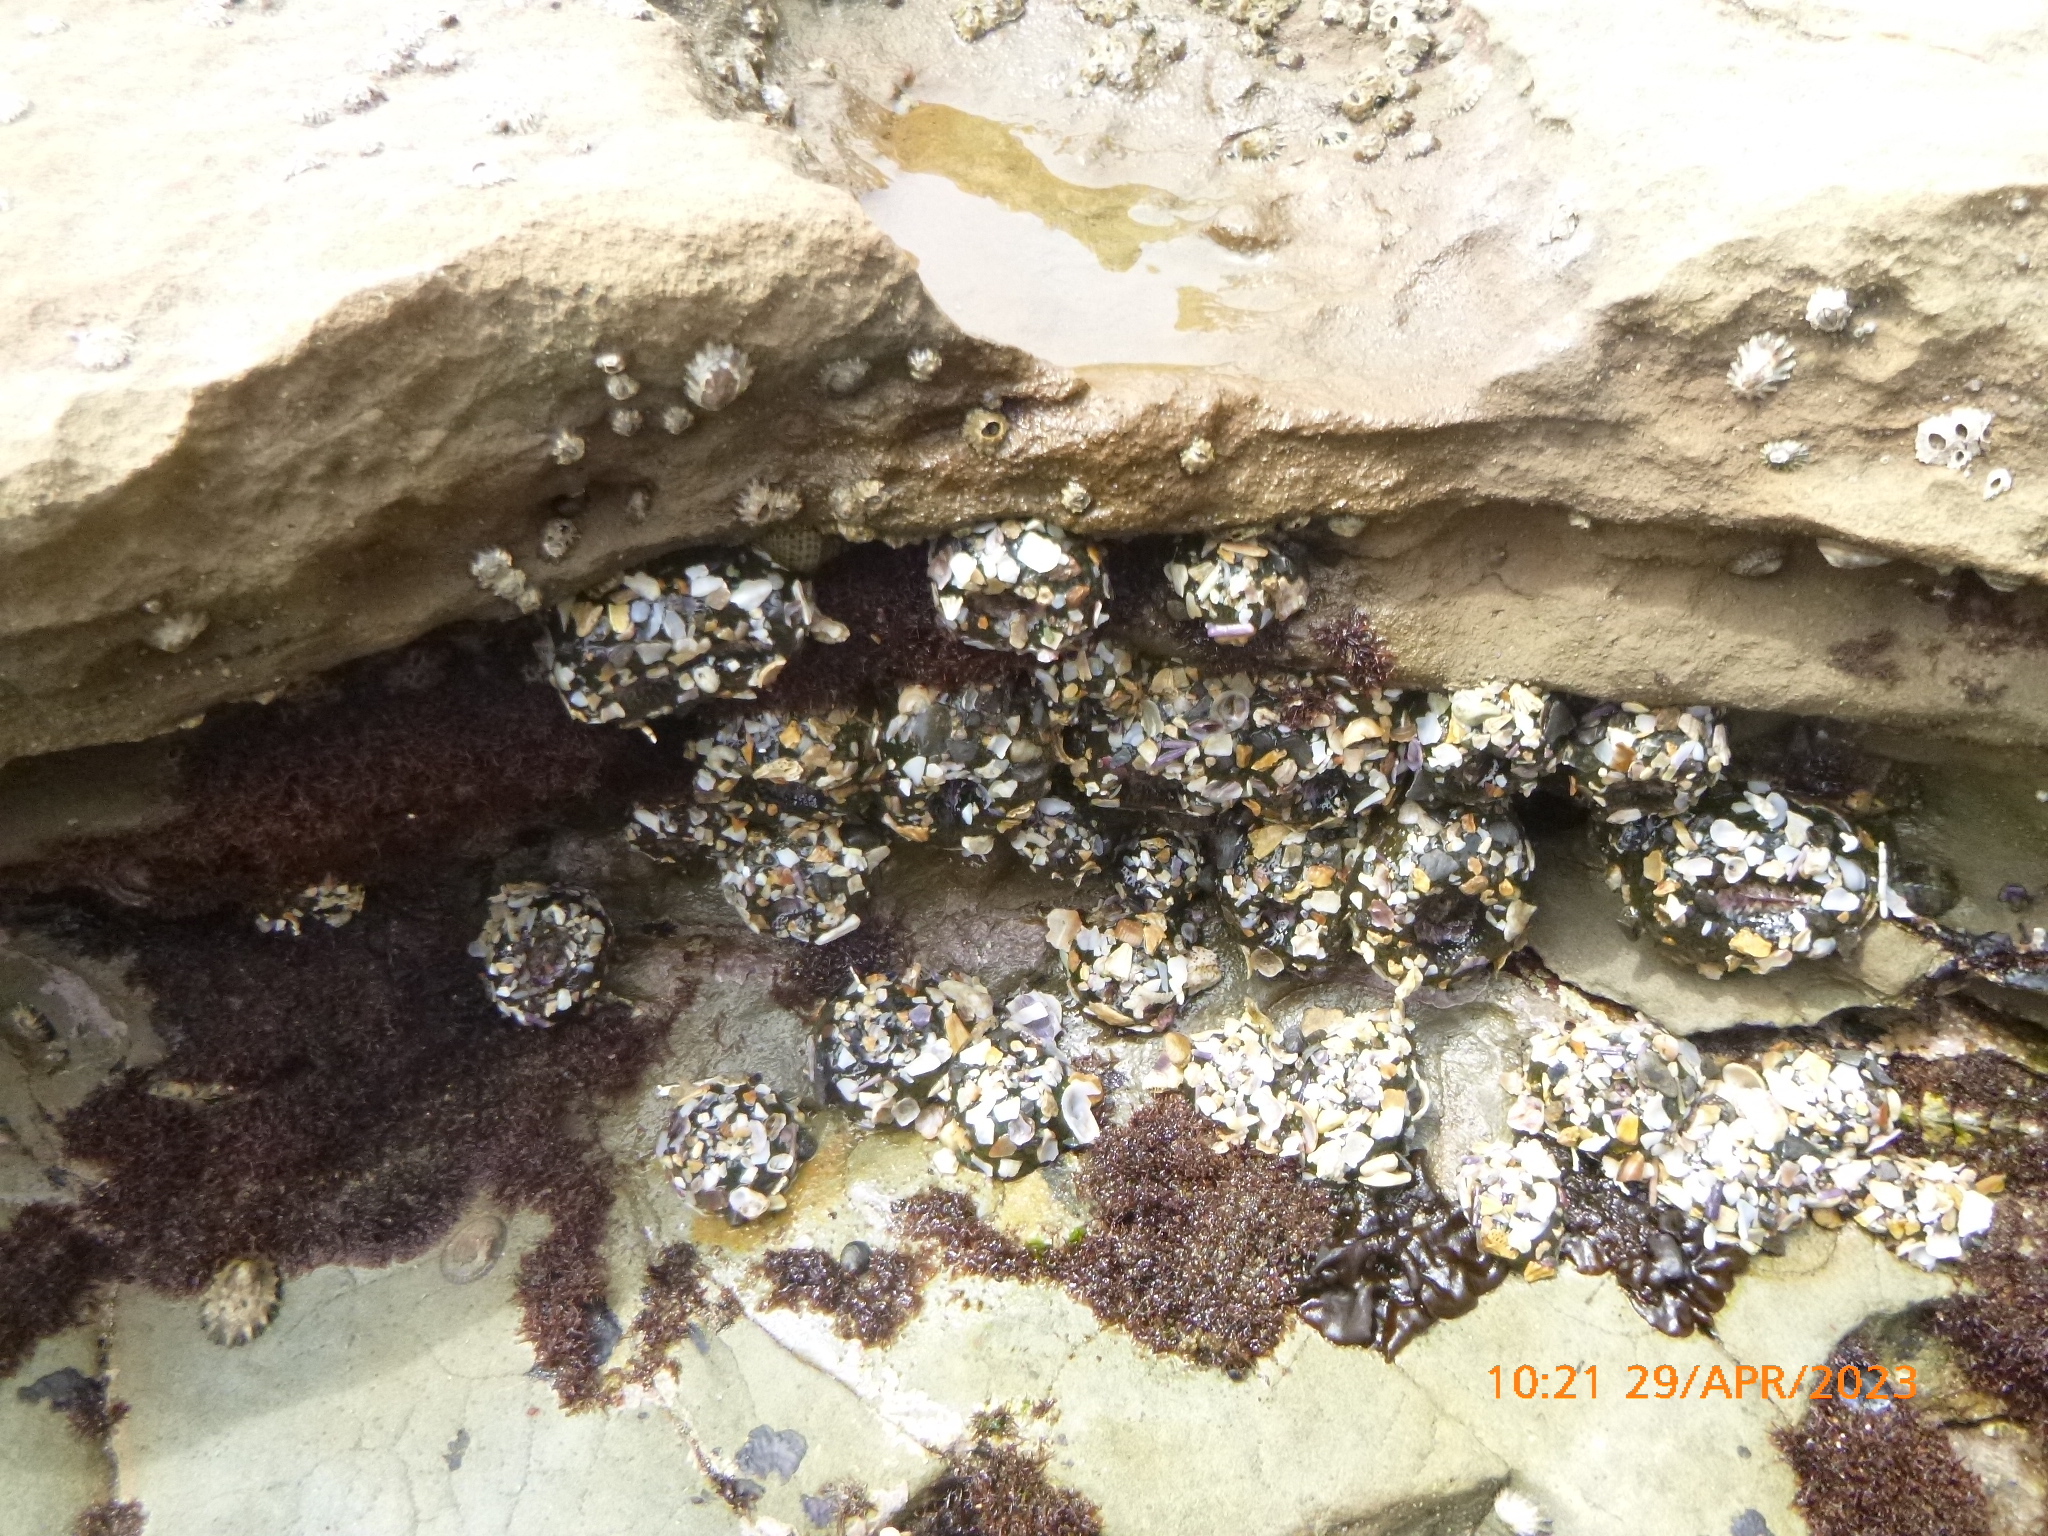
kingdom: Animalia
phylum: Cnidaria
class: Anthozoa
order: Actiniaria
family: Actiniidae
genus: Anthopleura
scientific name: Anthopleura elegantissima
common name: Clonal anemone
